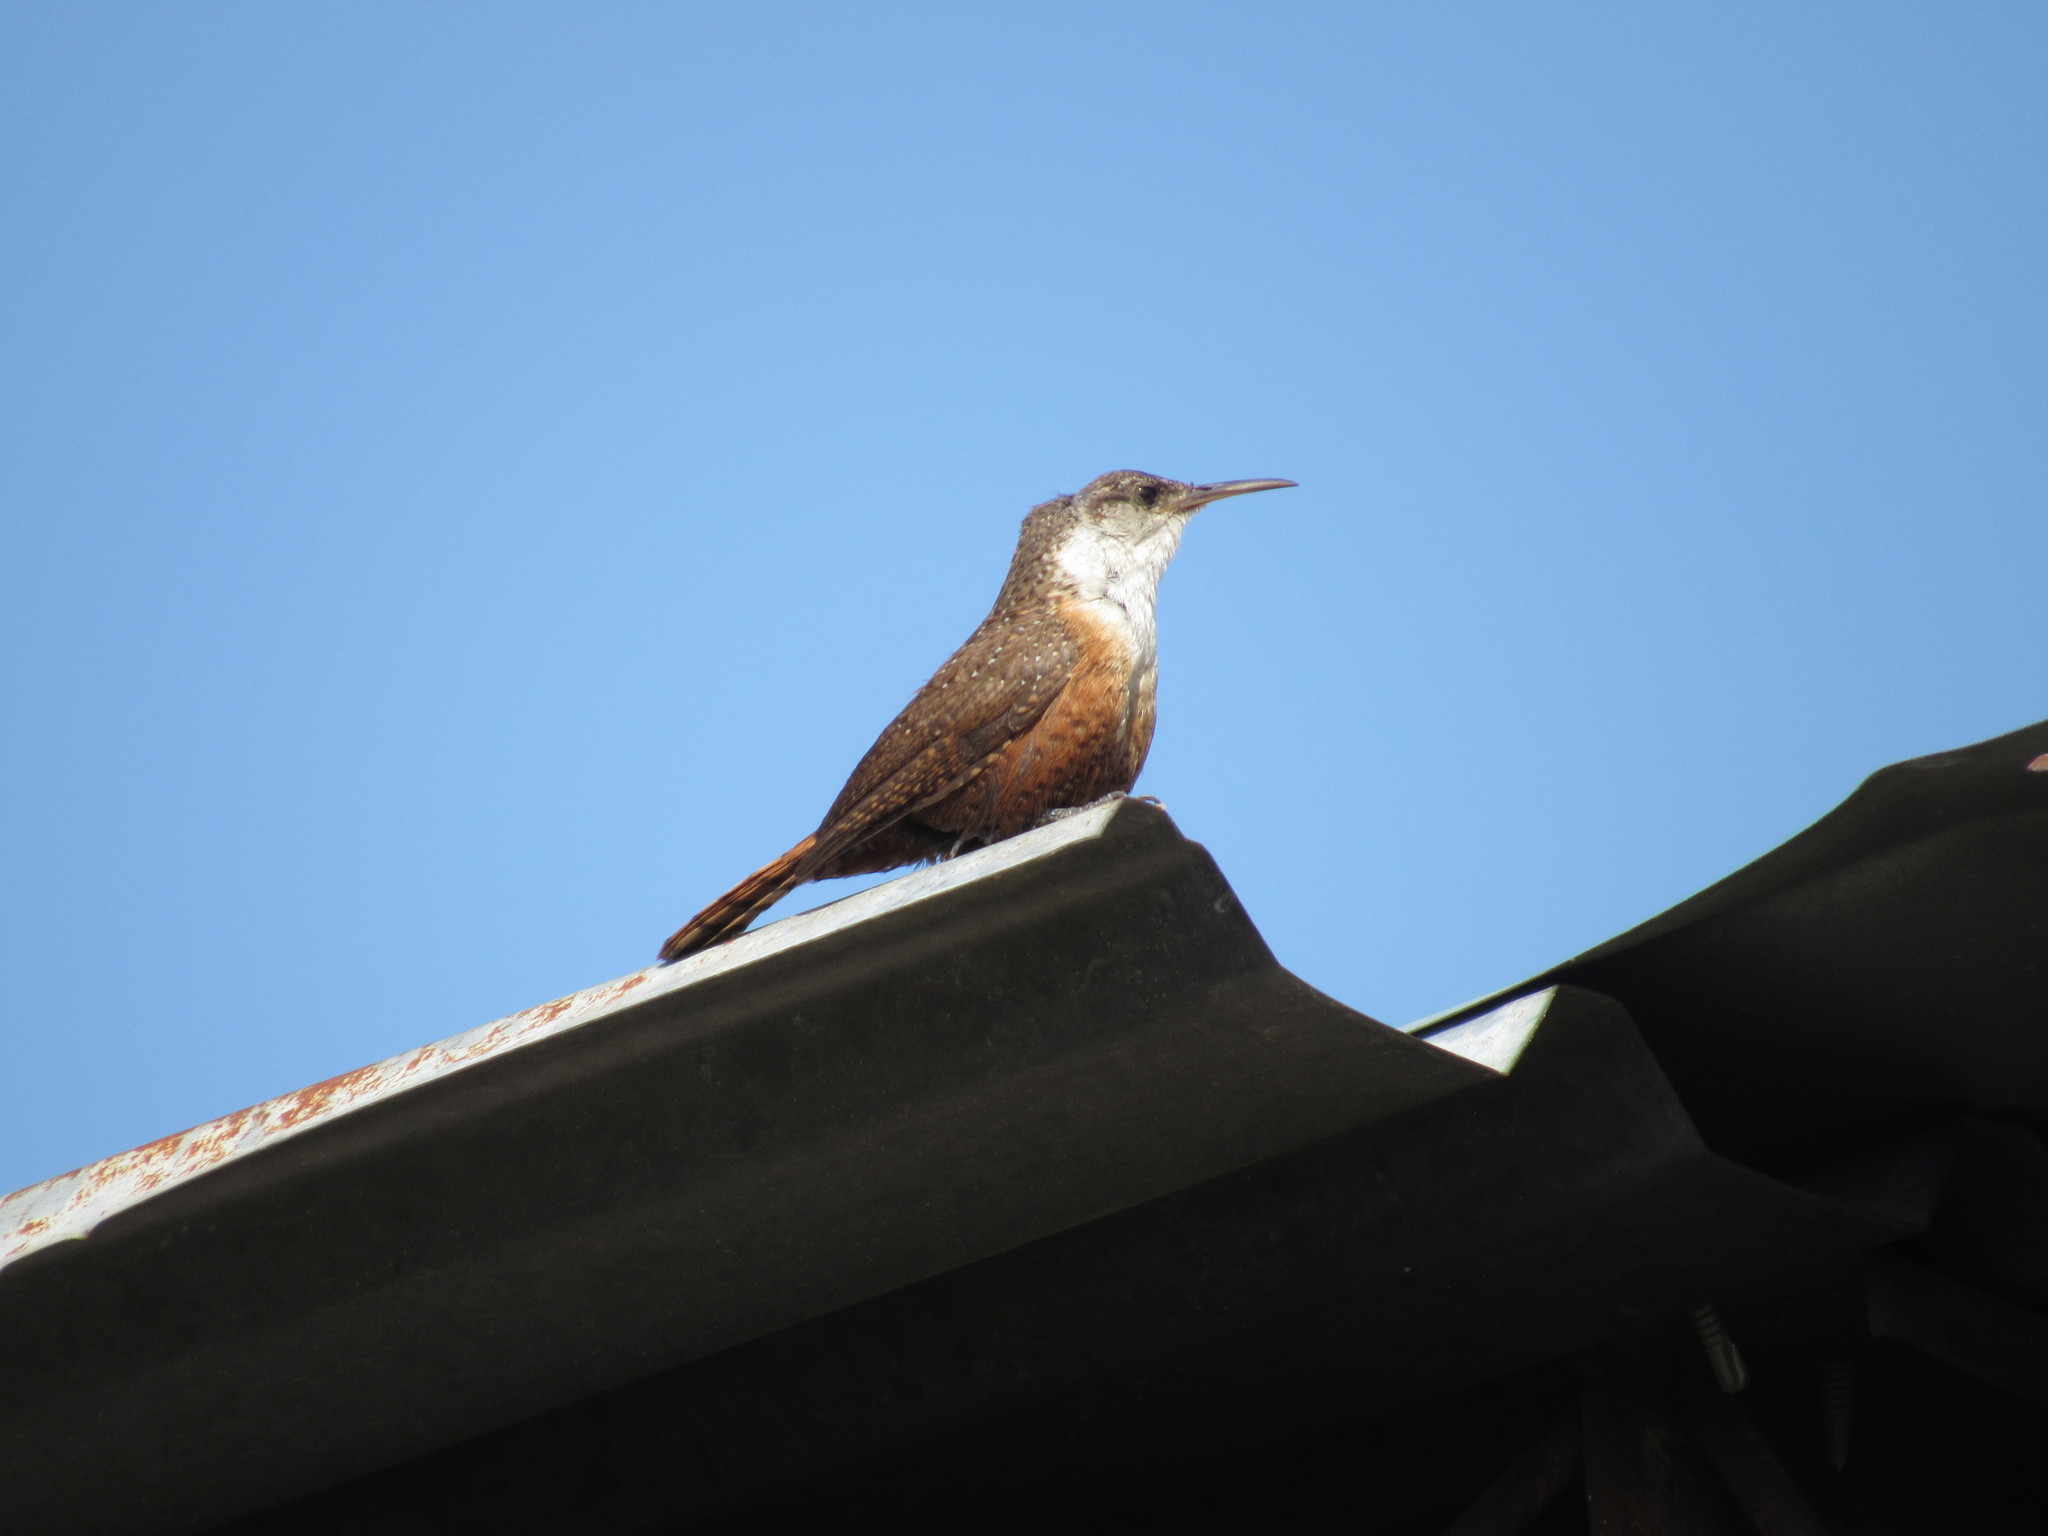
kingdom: Animalia
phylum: Chordata
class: Aves
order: Passeriformes
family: Troglodytidae
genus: Catherpes
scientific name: Catherpes mexicanus
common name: Canyon wren
